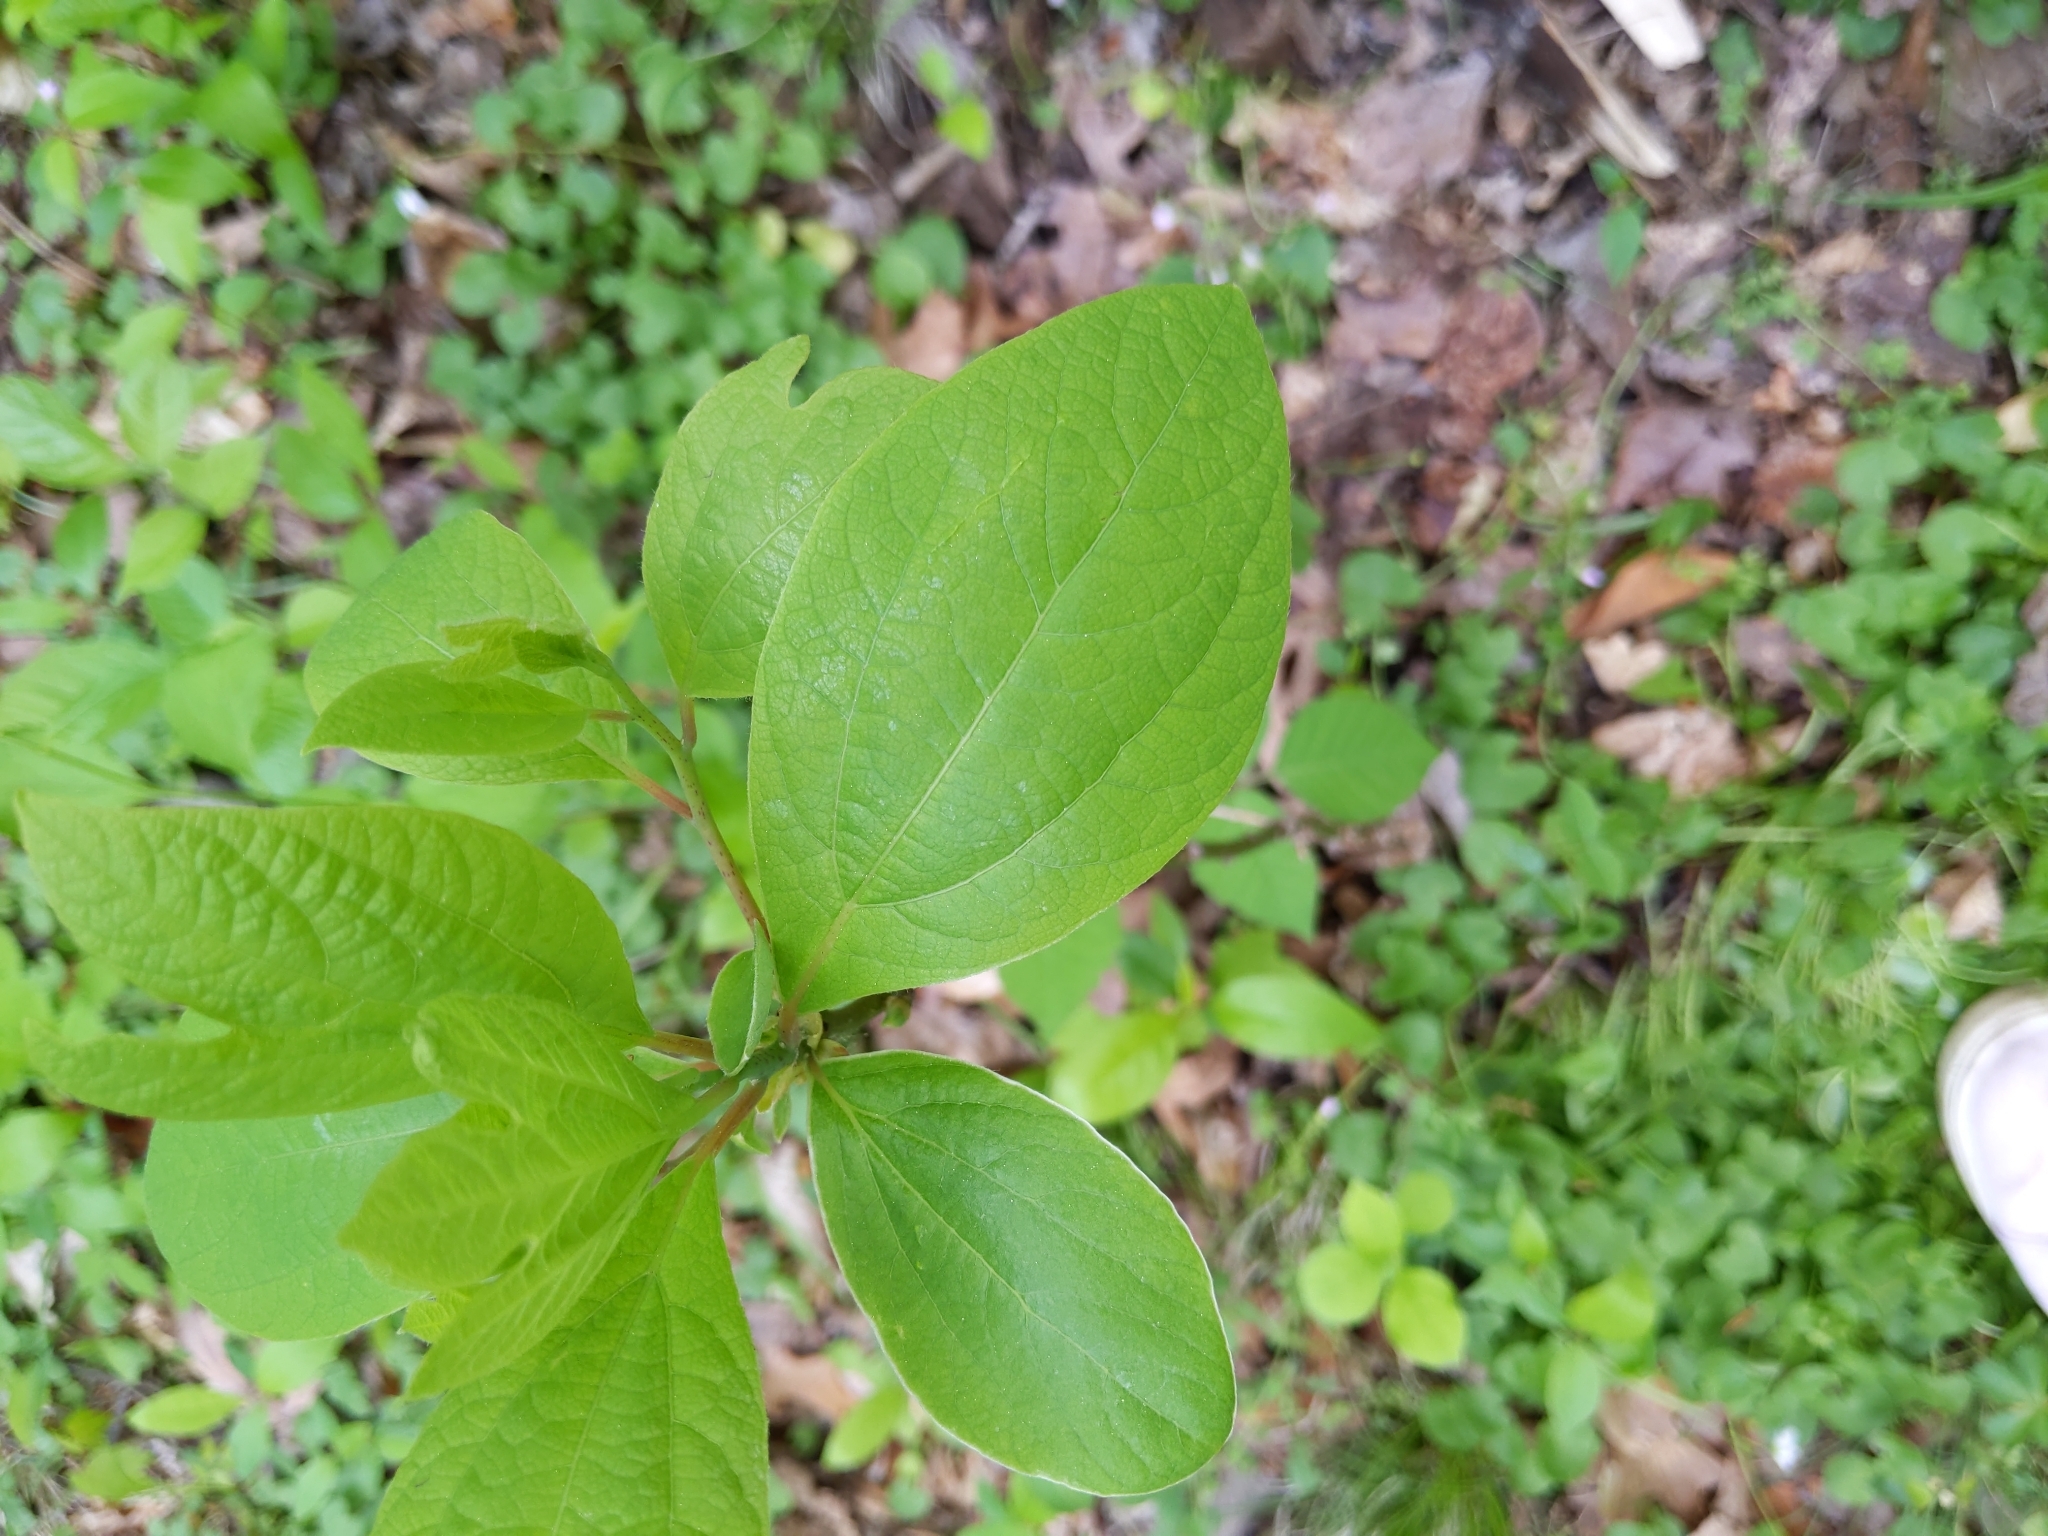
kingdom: Plantae
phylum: Tracheophyta
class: Magnoliopsida
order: Laurales
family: Lauraceae
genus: Sassafras
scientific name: Sassafras albidum
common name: Sassafras
